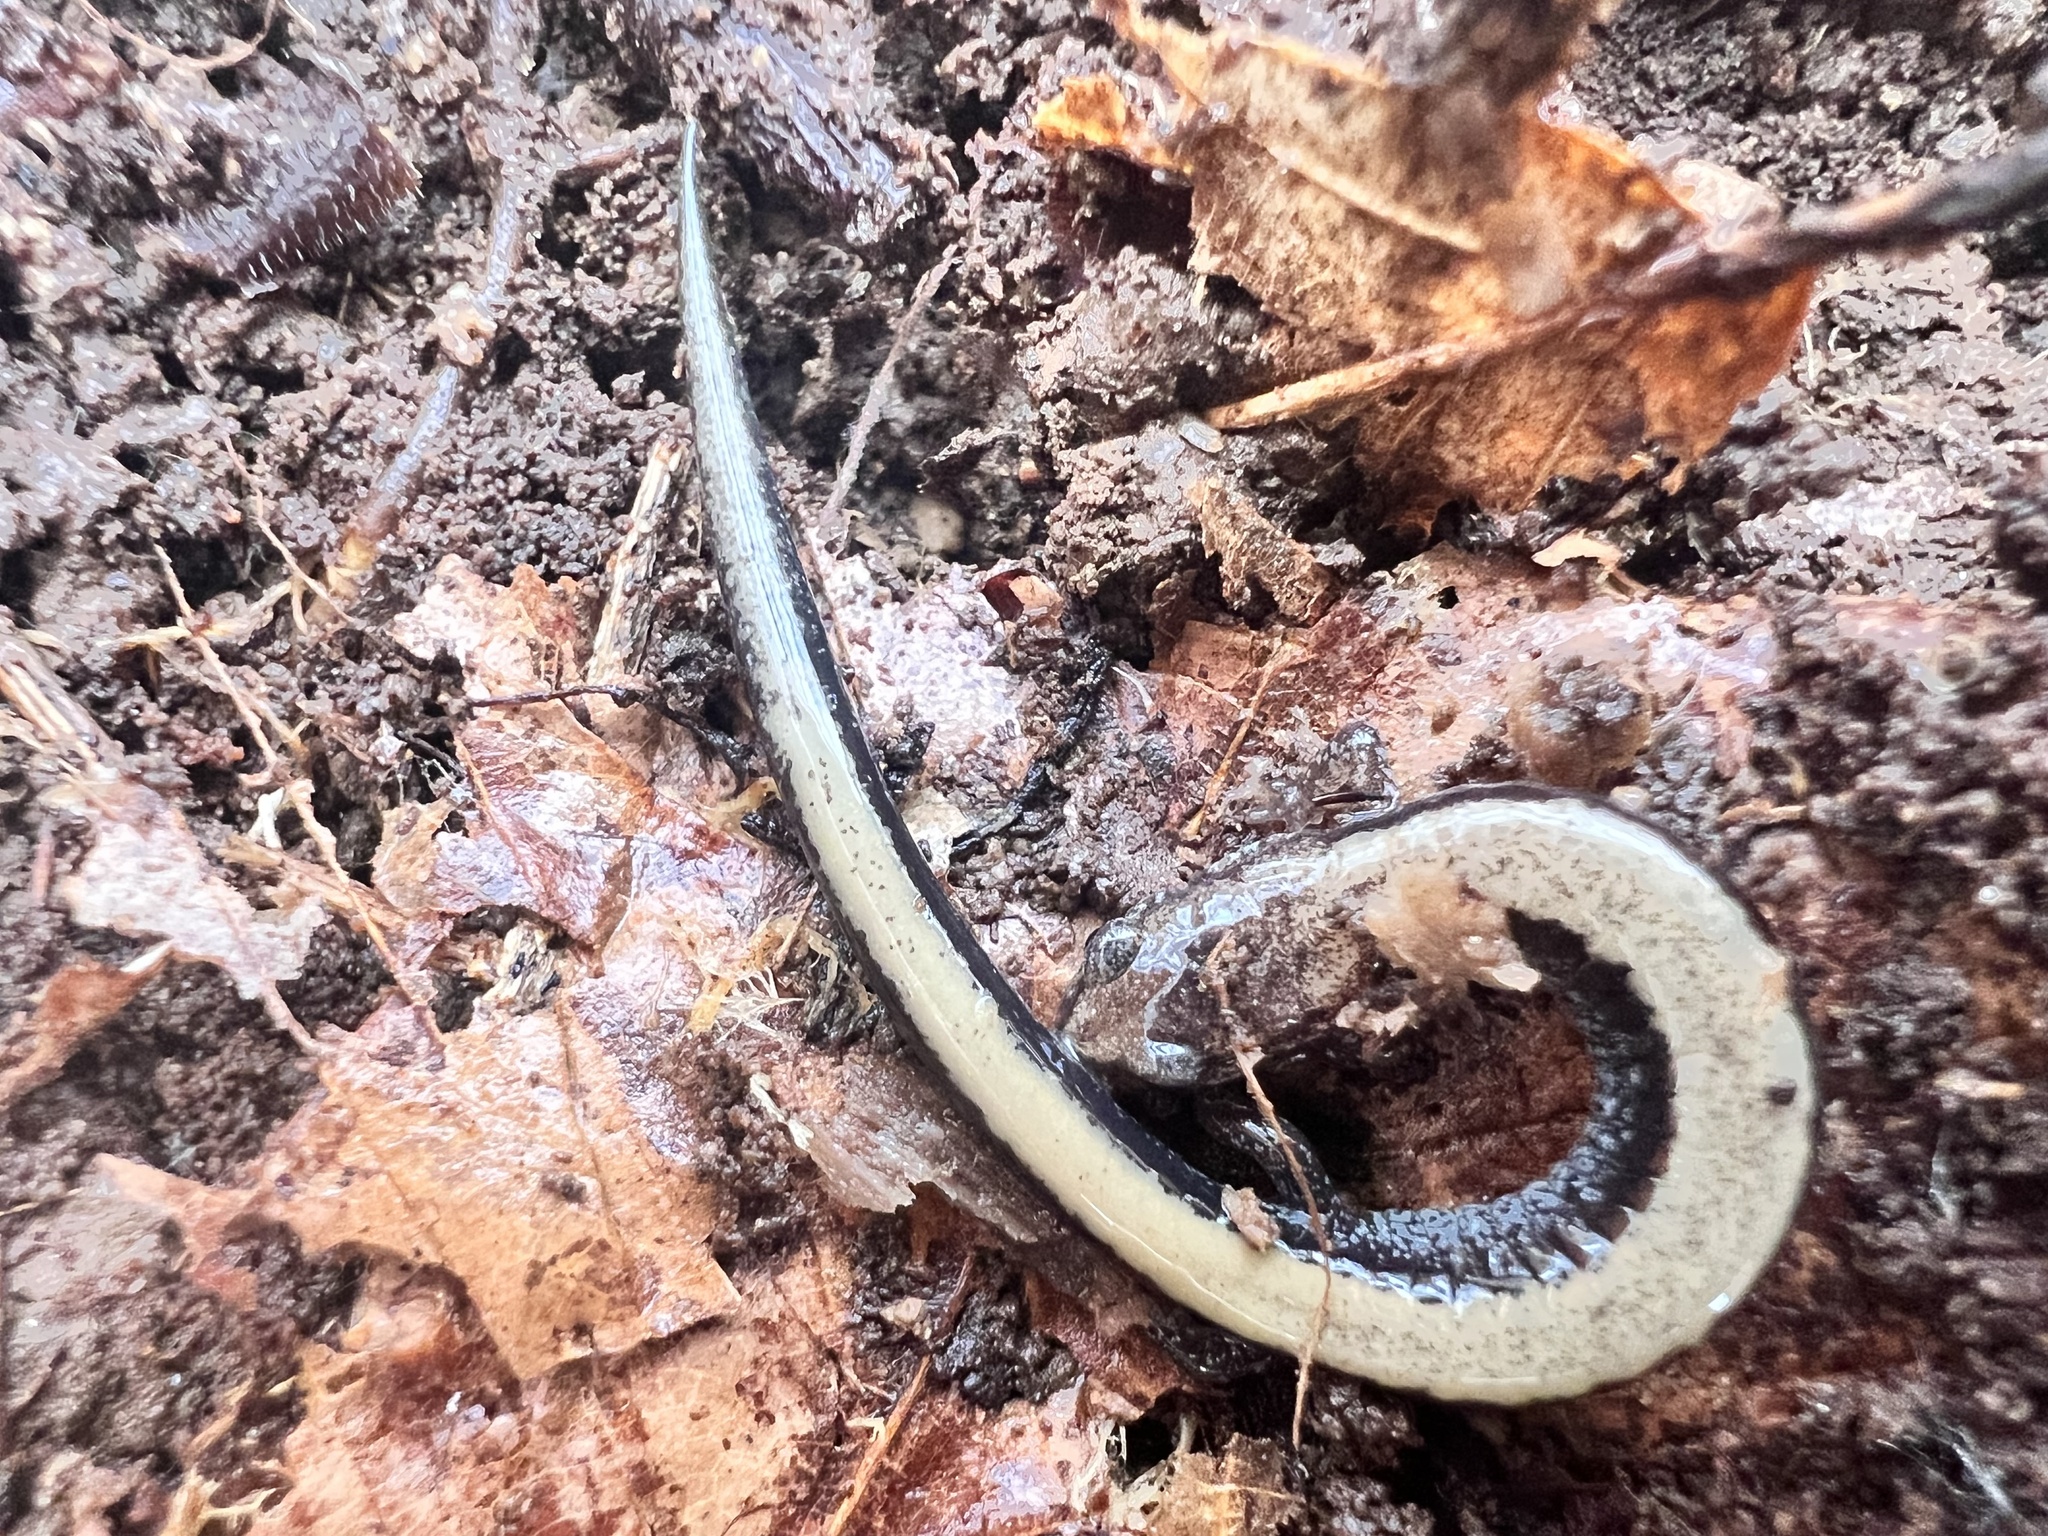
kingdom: Animalia
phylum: Chordata
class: Amphibia
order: Caudata
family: Plethodontidae
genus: Plethodon
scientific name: Plethodon cinereus
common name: Redback salamander
